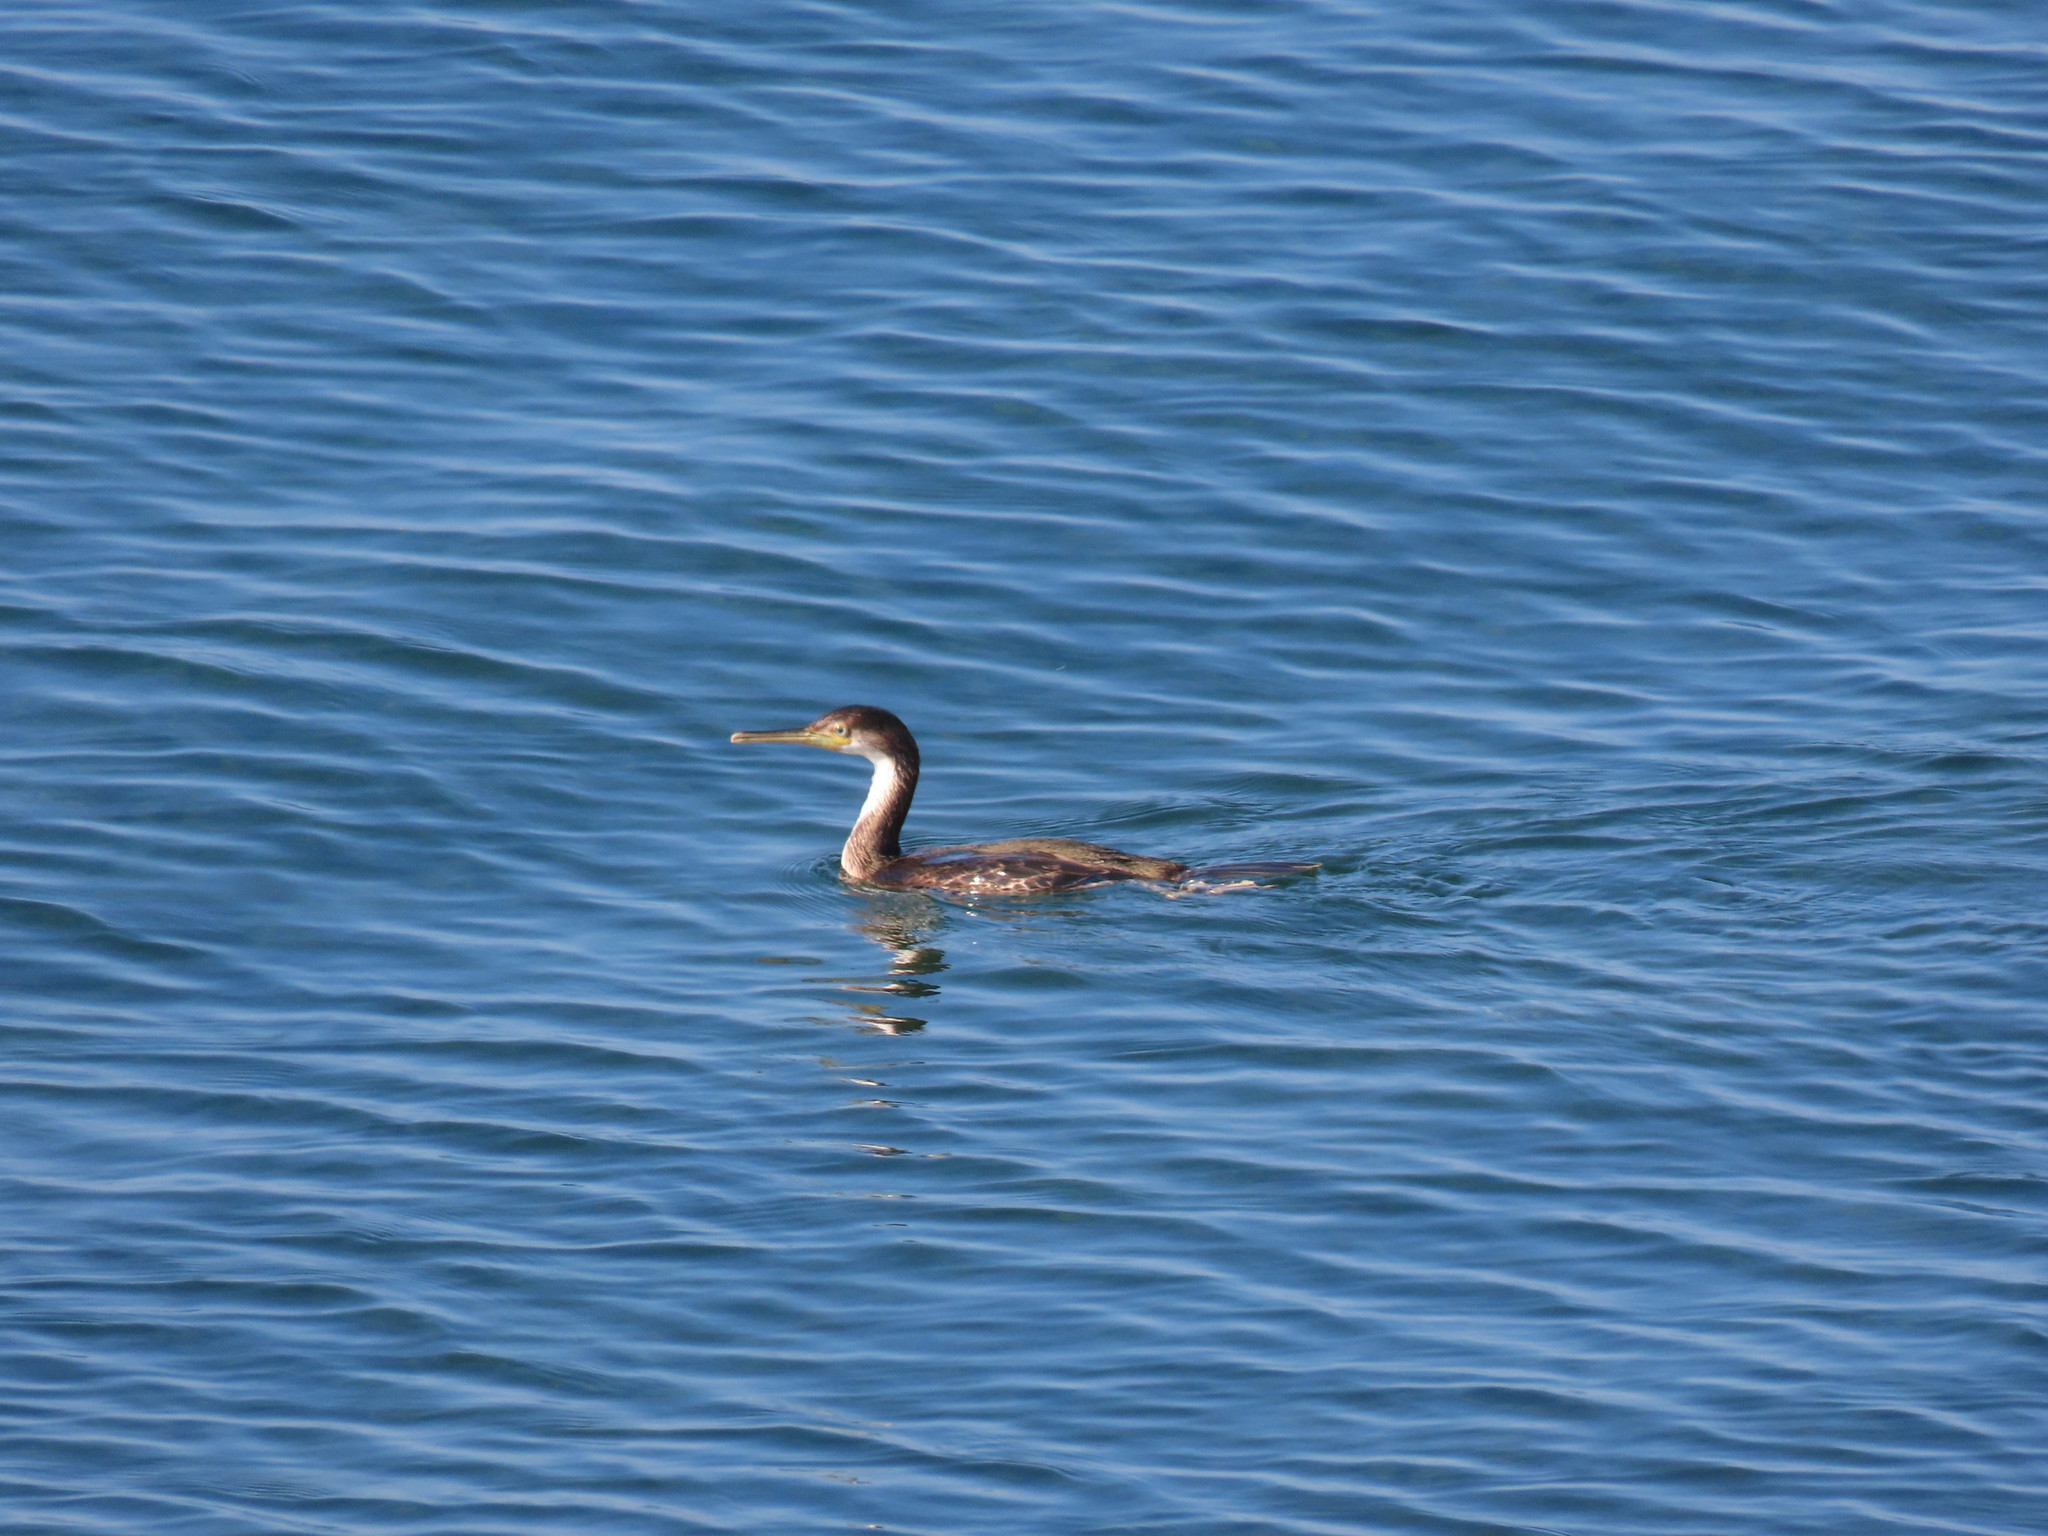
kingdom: Animalia
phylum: Chordata
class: Aves
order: Suliformes
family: Phalacrocoracidae
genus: Phalacrocorax
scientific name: Phalacrocorax aristotelis
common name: European shag
